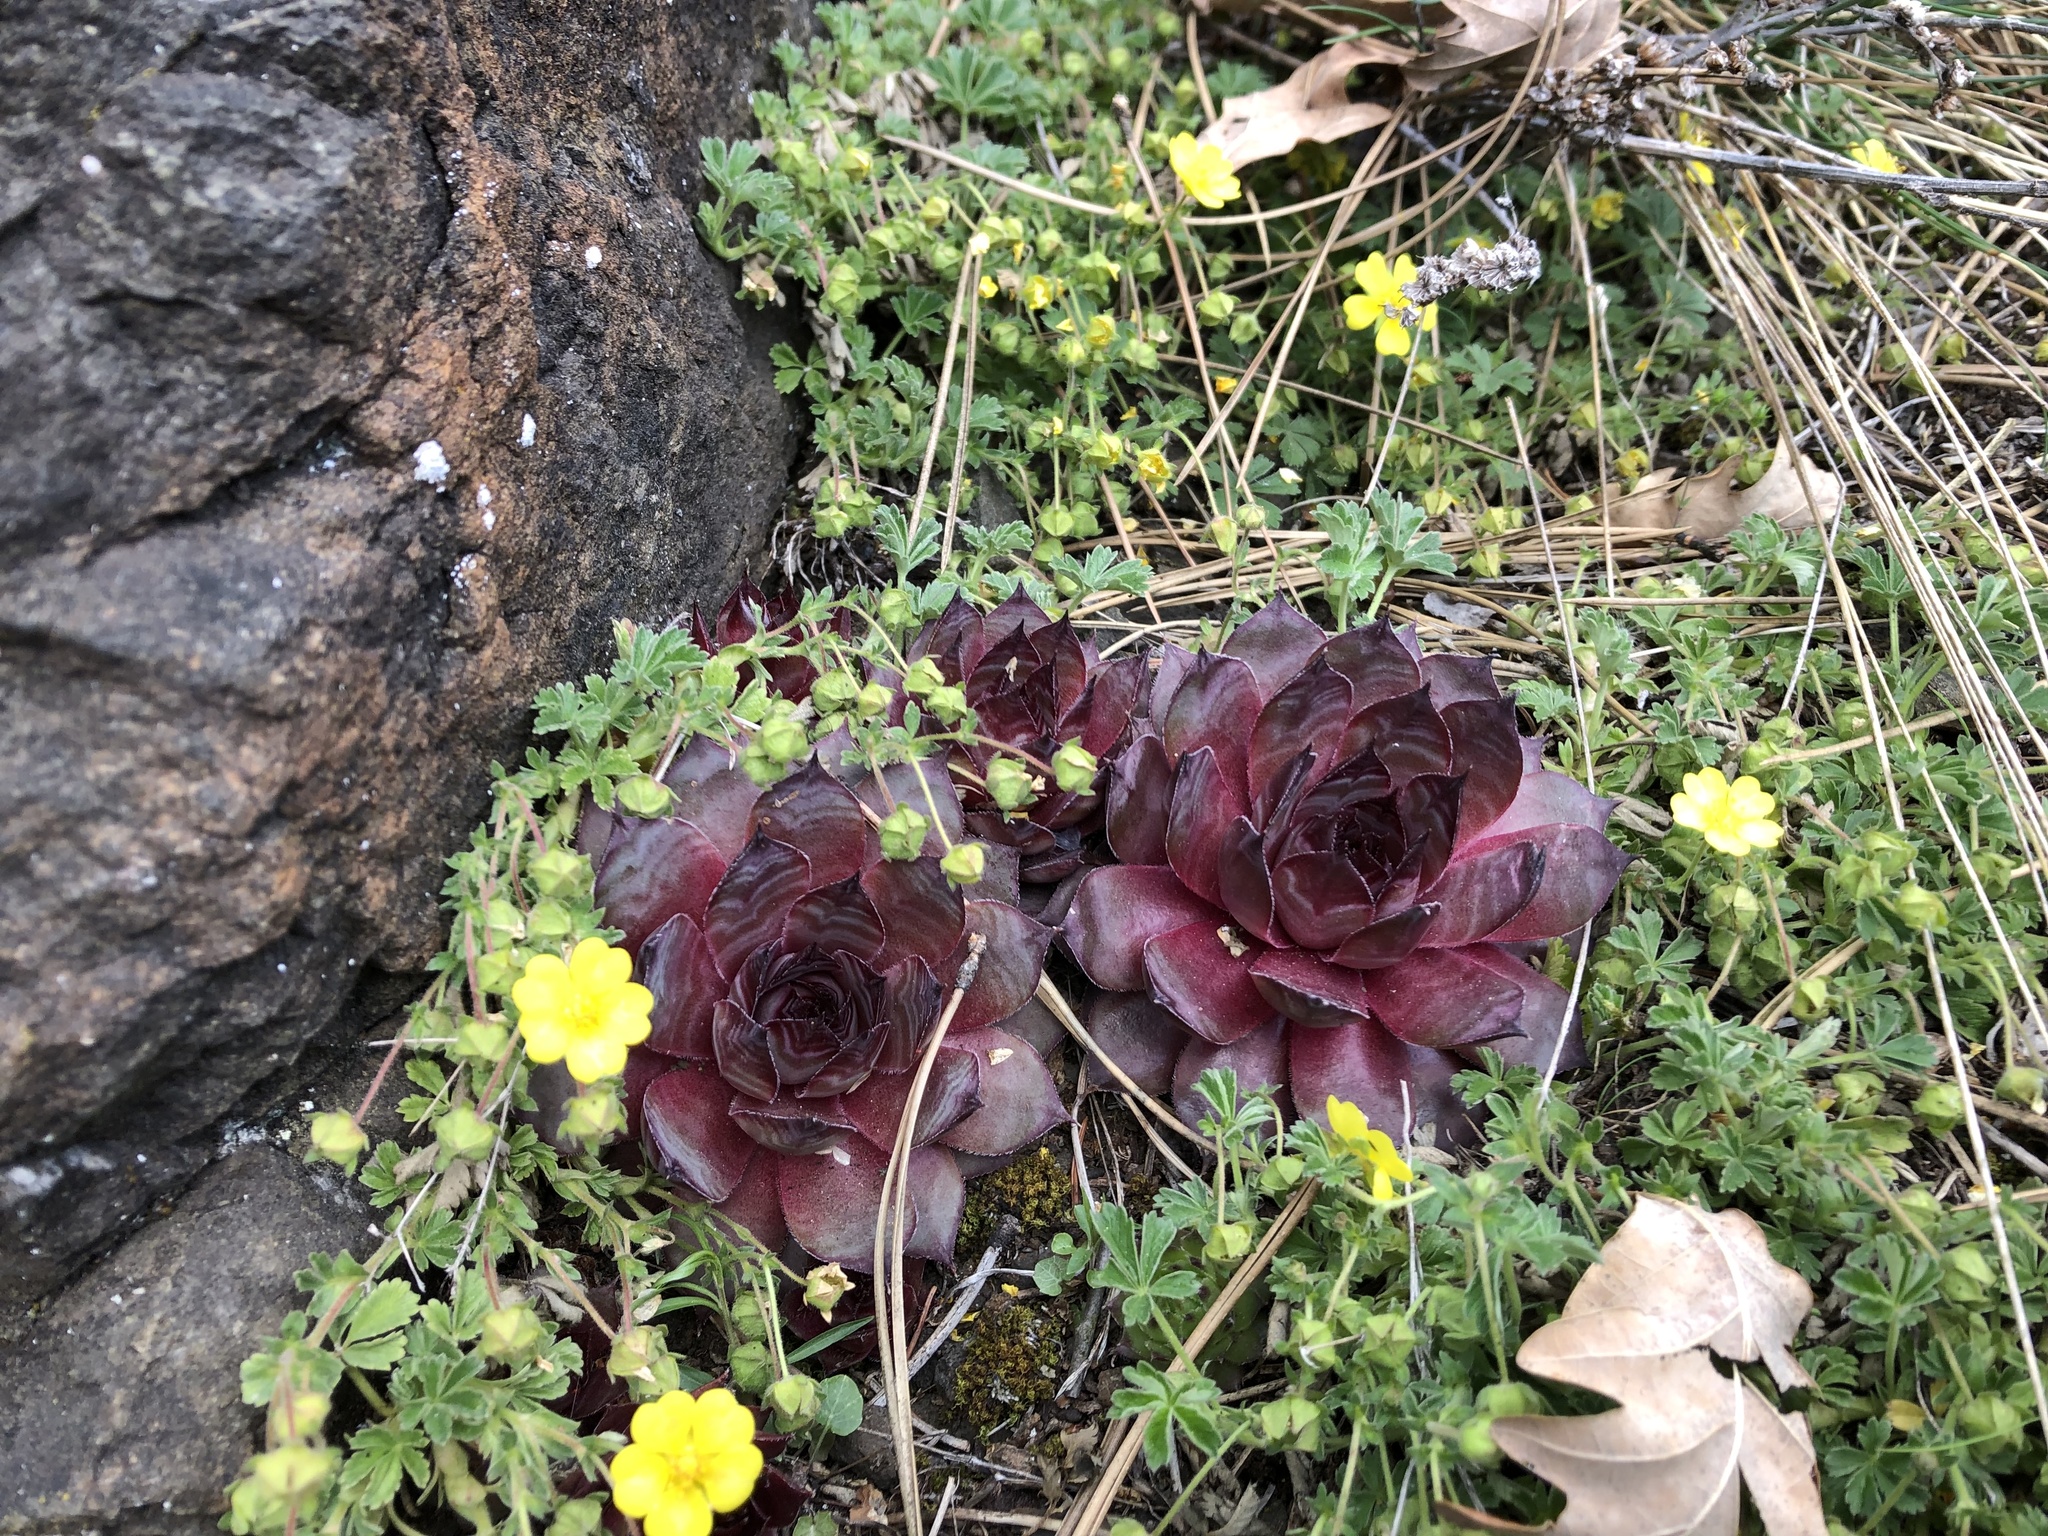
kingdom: Plantae
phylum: Tracheophyta
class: Magnoliopsida
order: Saxifragales
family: Crassulaceae
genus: Sempervivum
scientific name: Sempervivum tectorum
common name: House-leek
